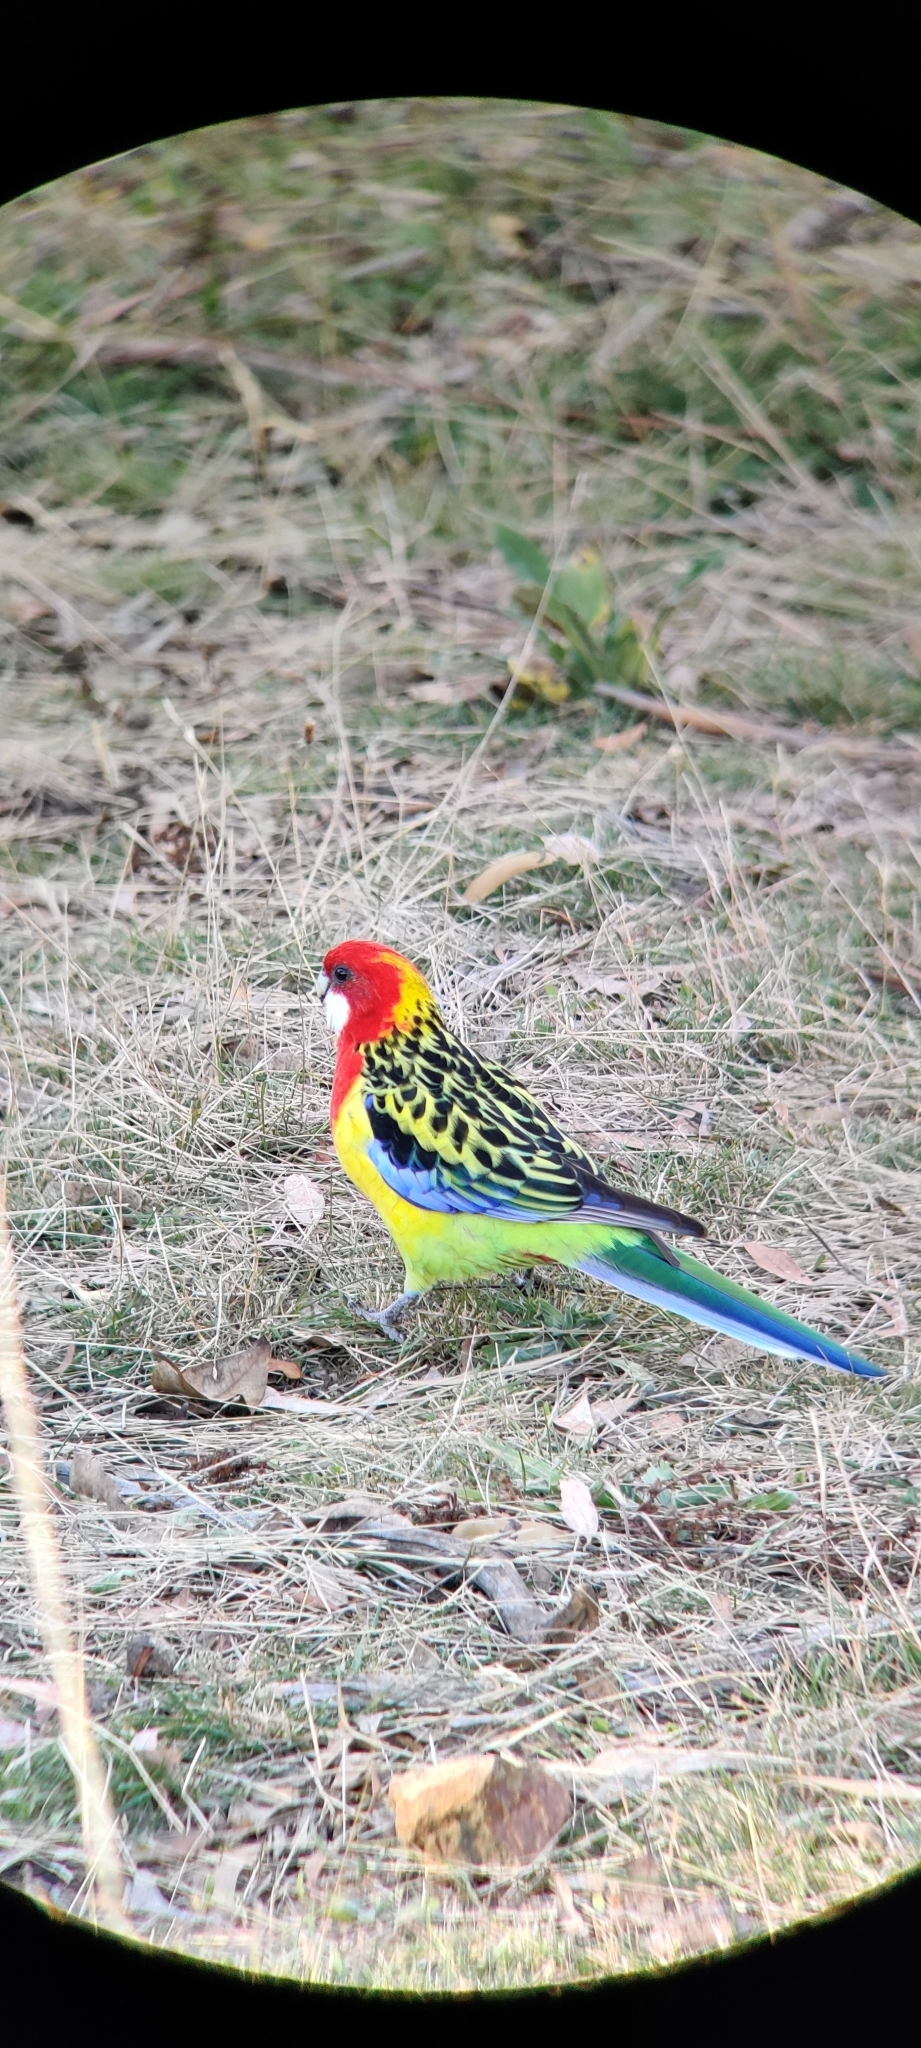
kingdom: Animalia
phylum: Chordata
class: Aves
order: Psittaciformes
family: Psittacidae
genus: Platycercus
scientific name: Platycercus eximius
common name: Eastern rosella
